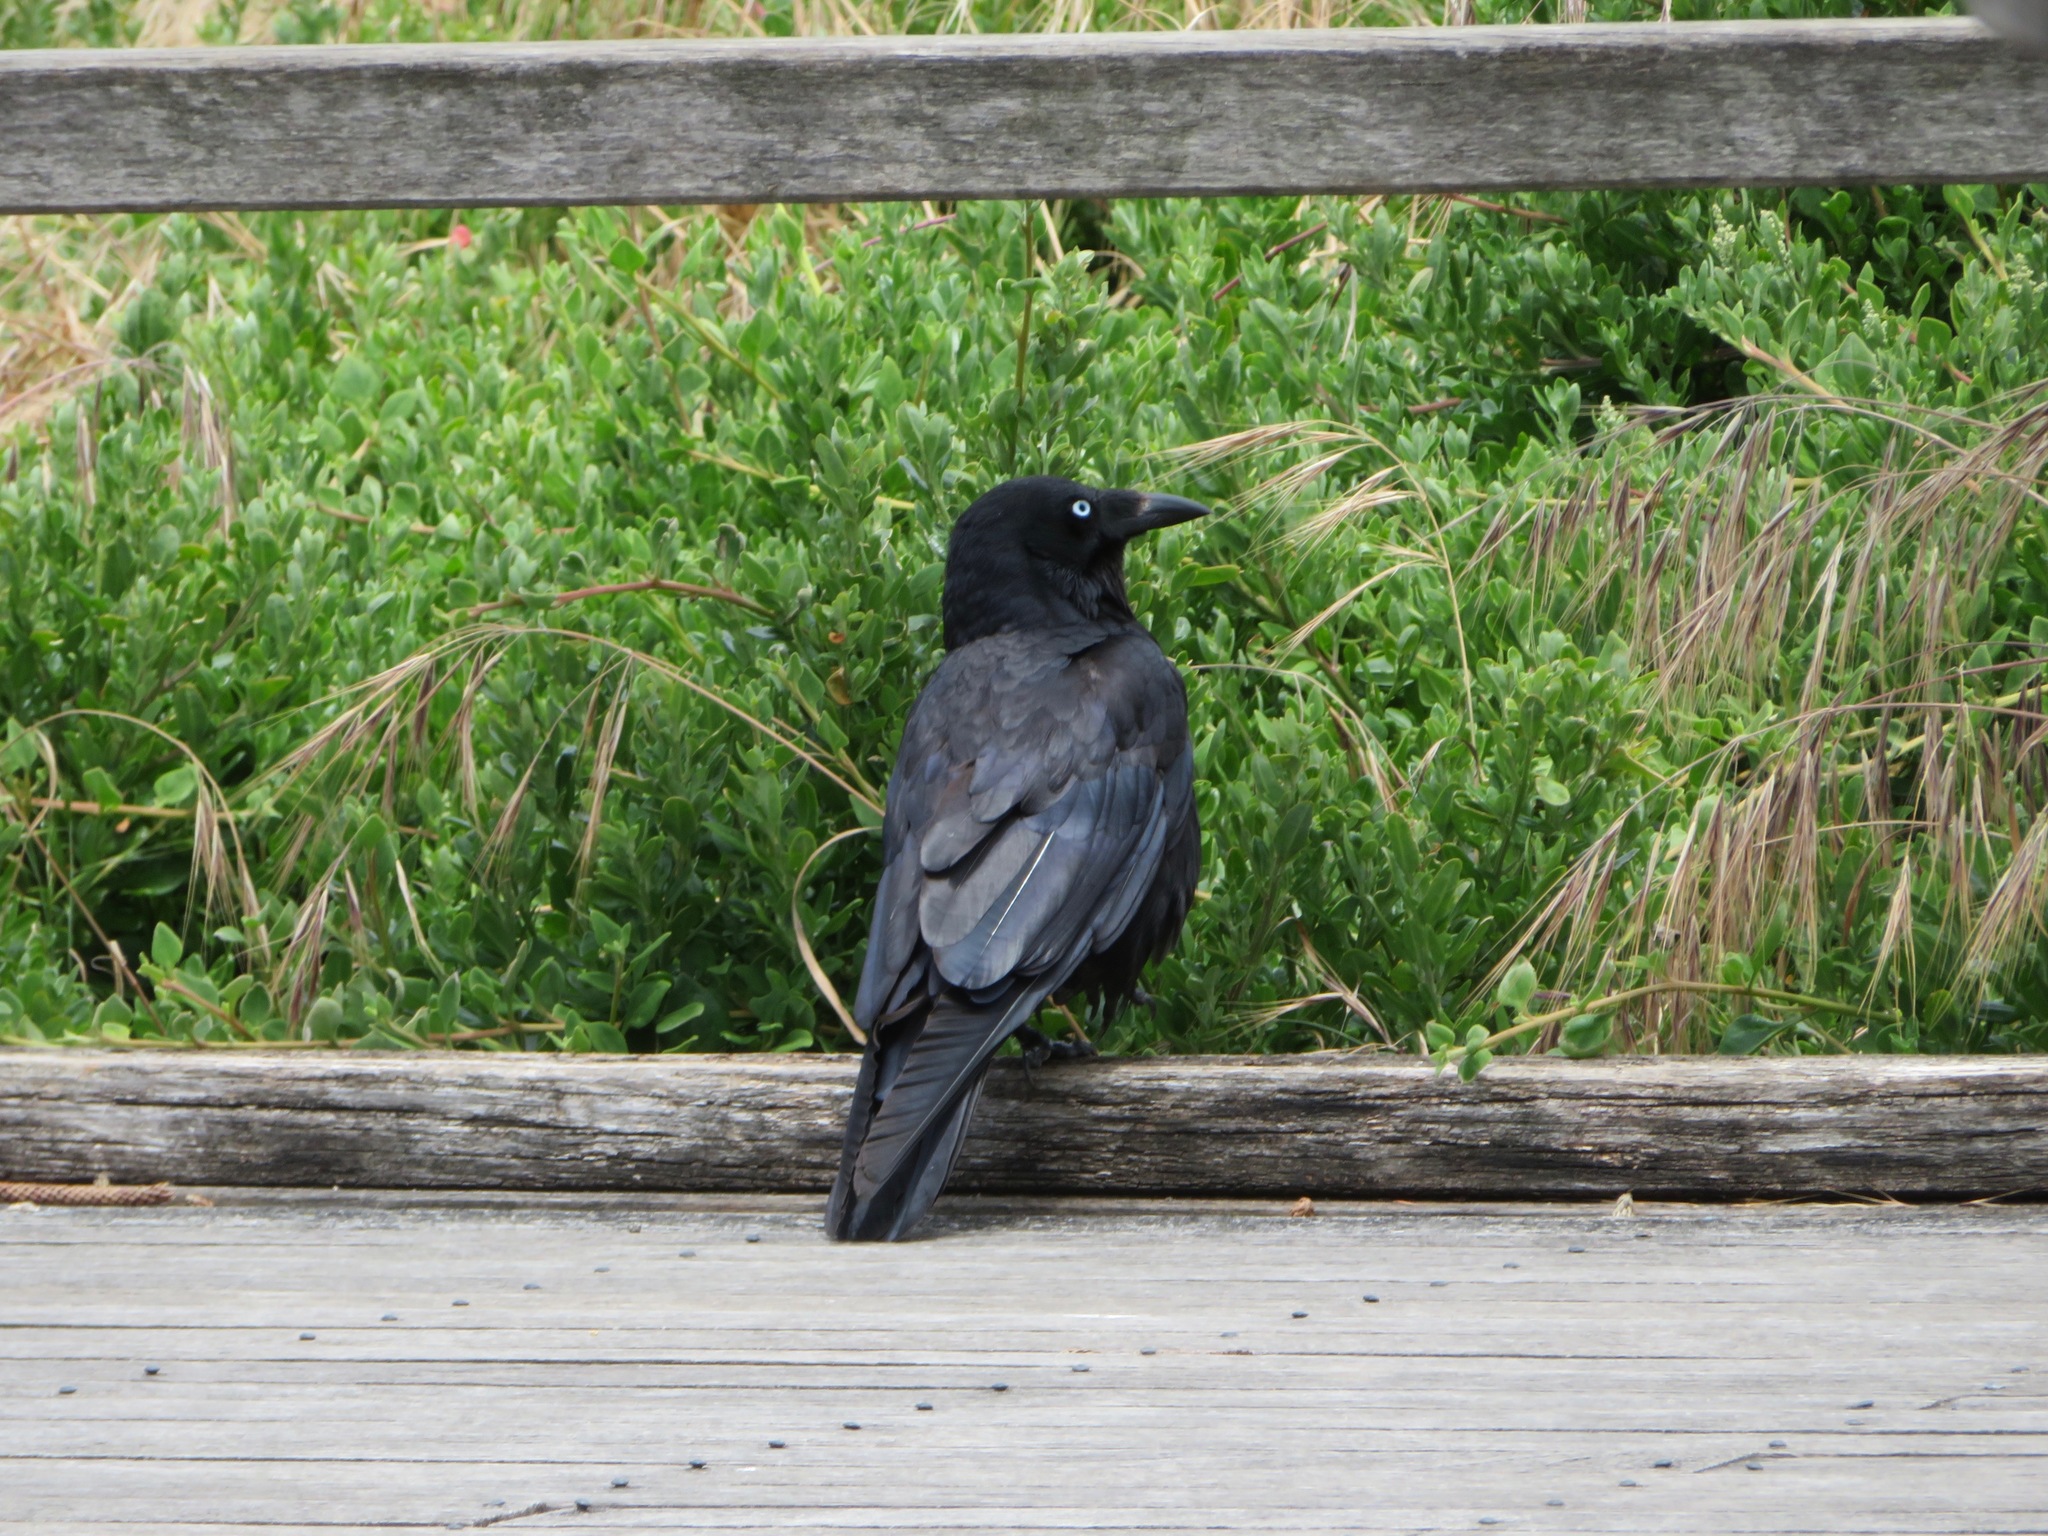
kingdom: Animalia
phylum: Chordata
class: Aves
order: Passeriformes
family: Corvidae
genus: Corvus
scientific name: Corvus mellori
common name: Little raven
